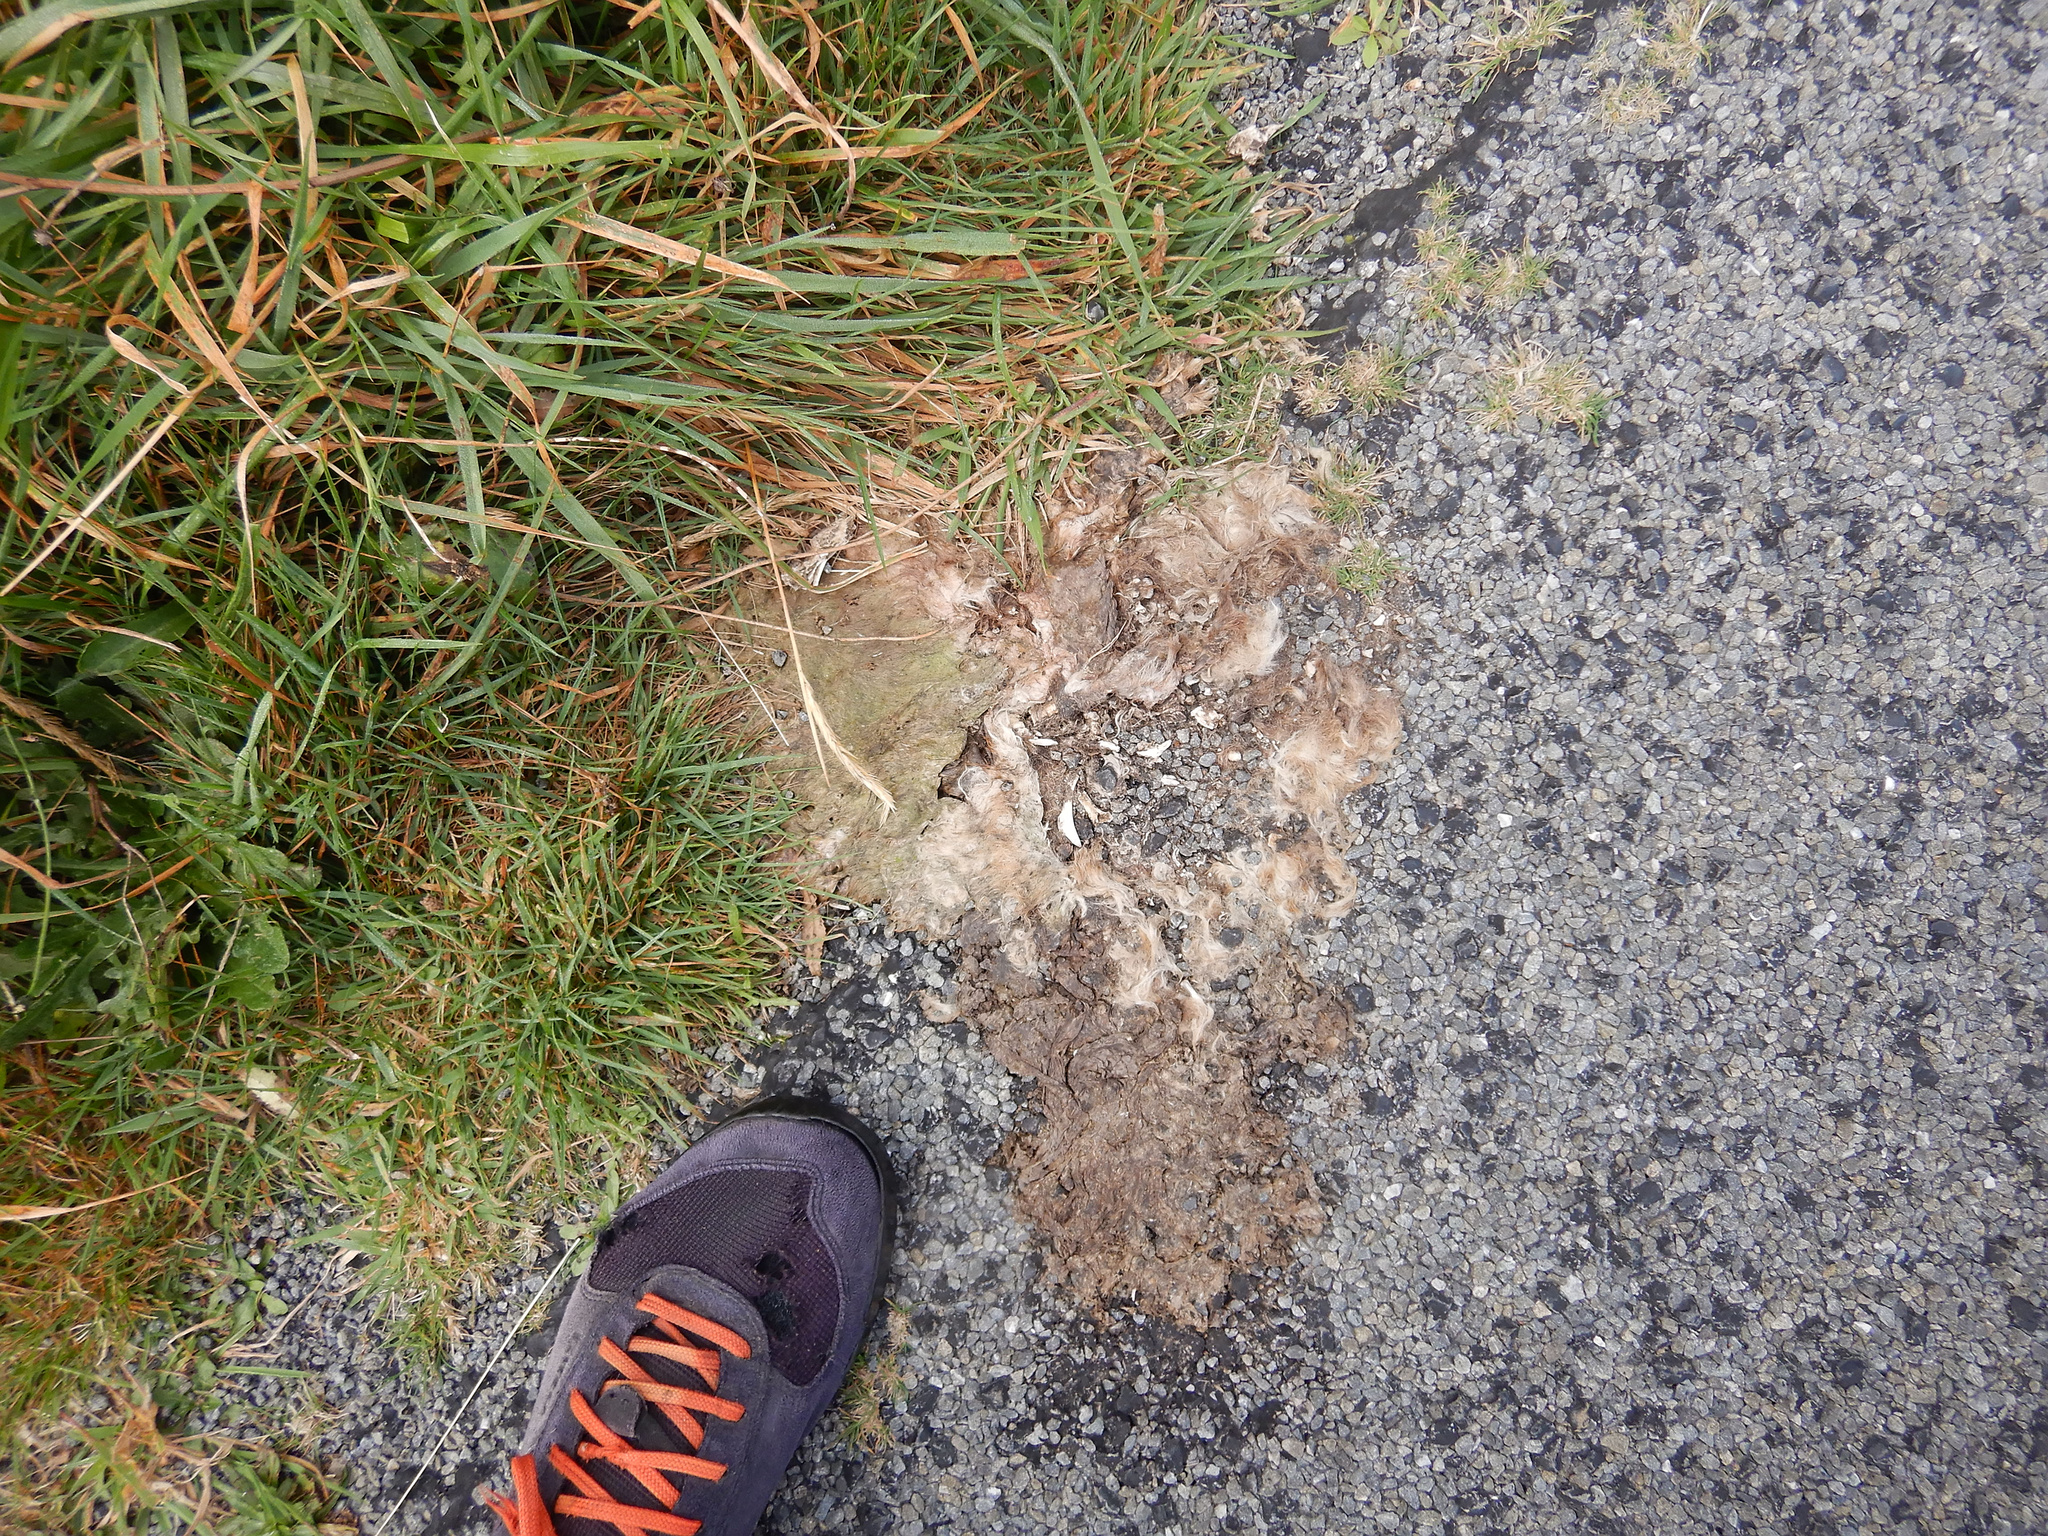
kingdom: Animalia
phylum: Chordata
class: Mammalia
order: Diprotodontia
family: Phalangeridae
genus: Trichosurus
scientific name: Trichosurus vulpecula
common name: Common brushtail
